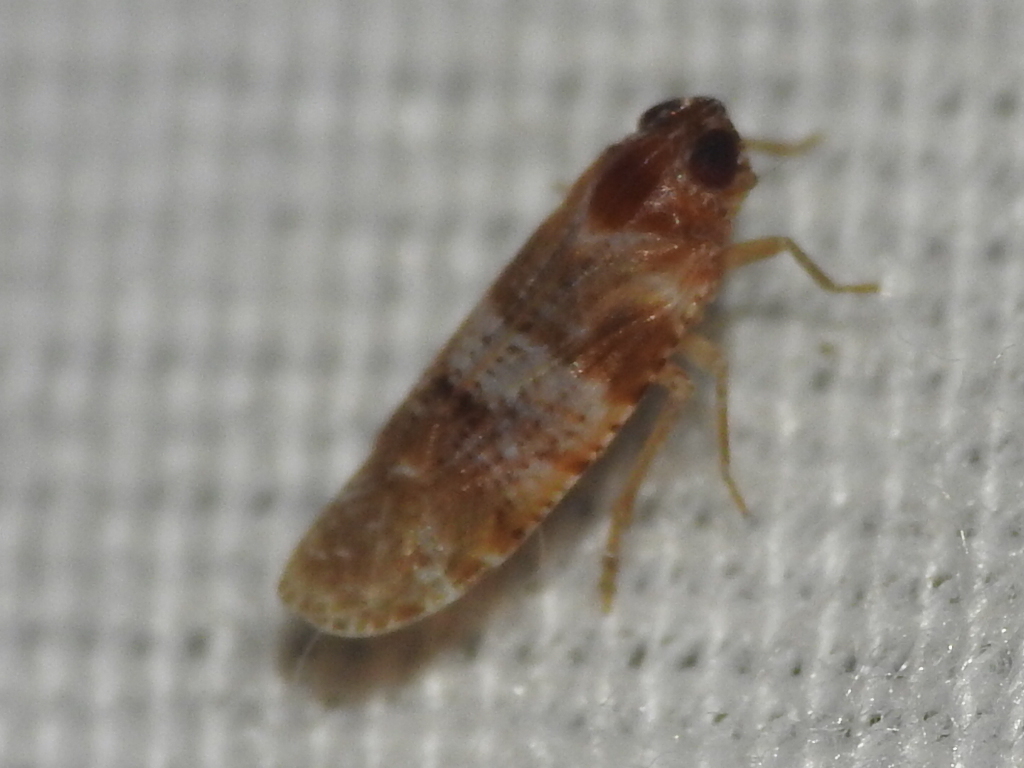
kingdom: Animalia
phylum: Arthropoda
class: Insecta
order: Hemiptera
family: Achilidae
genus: Catonia
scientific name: Catonia picta
